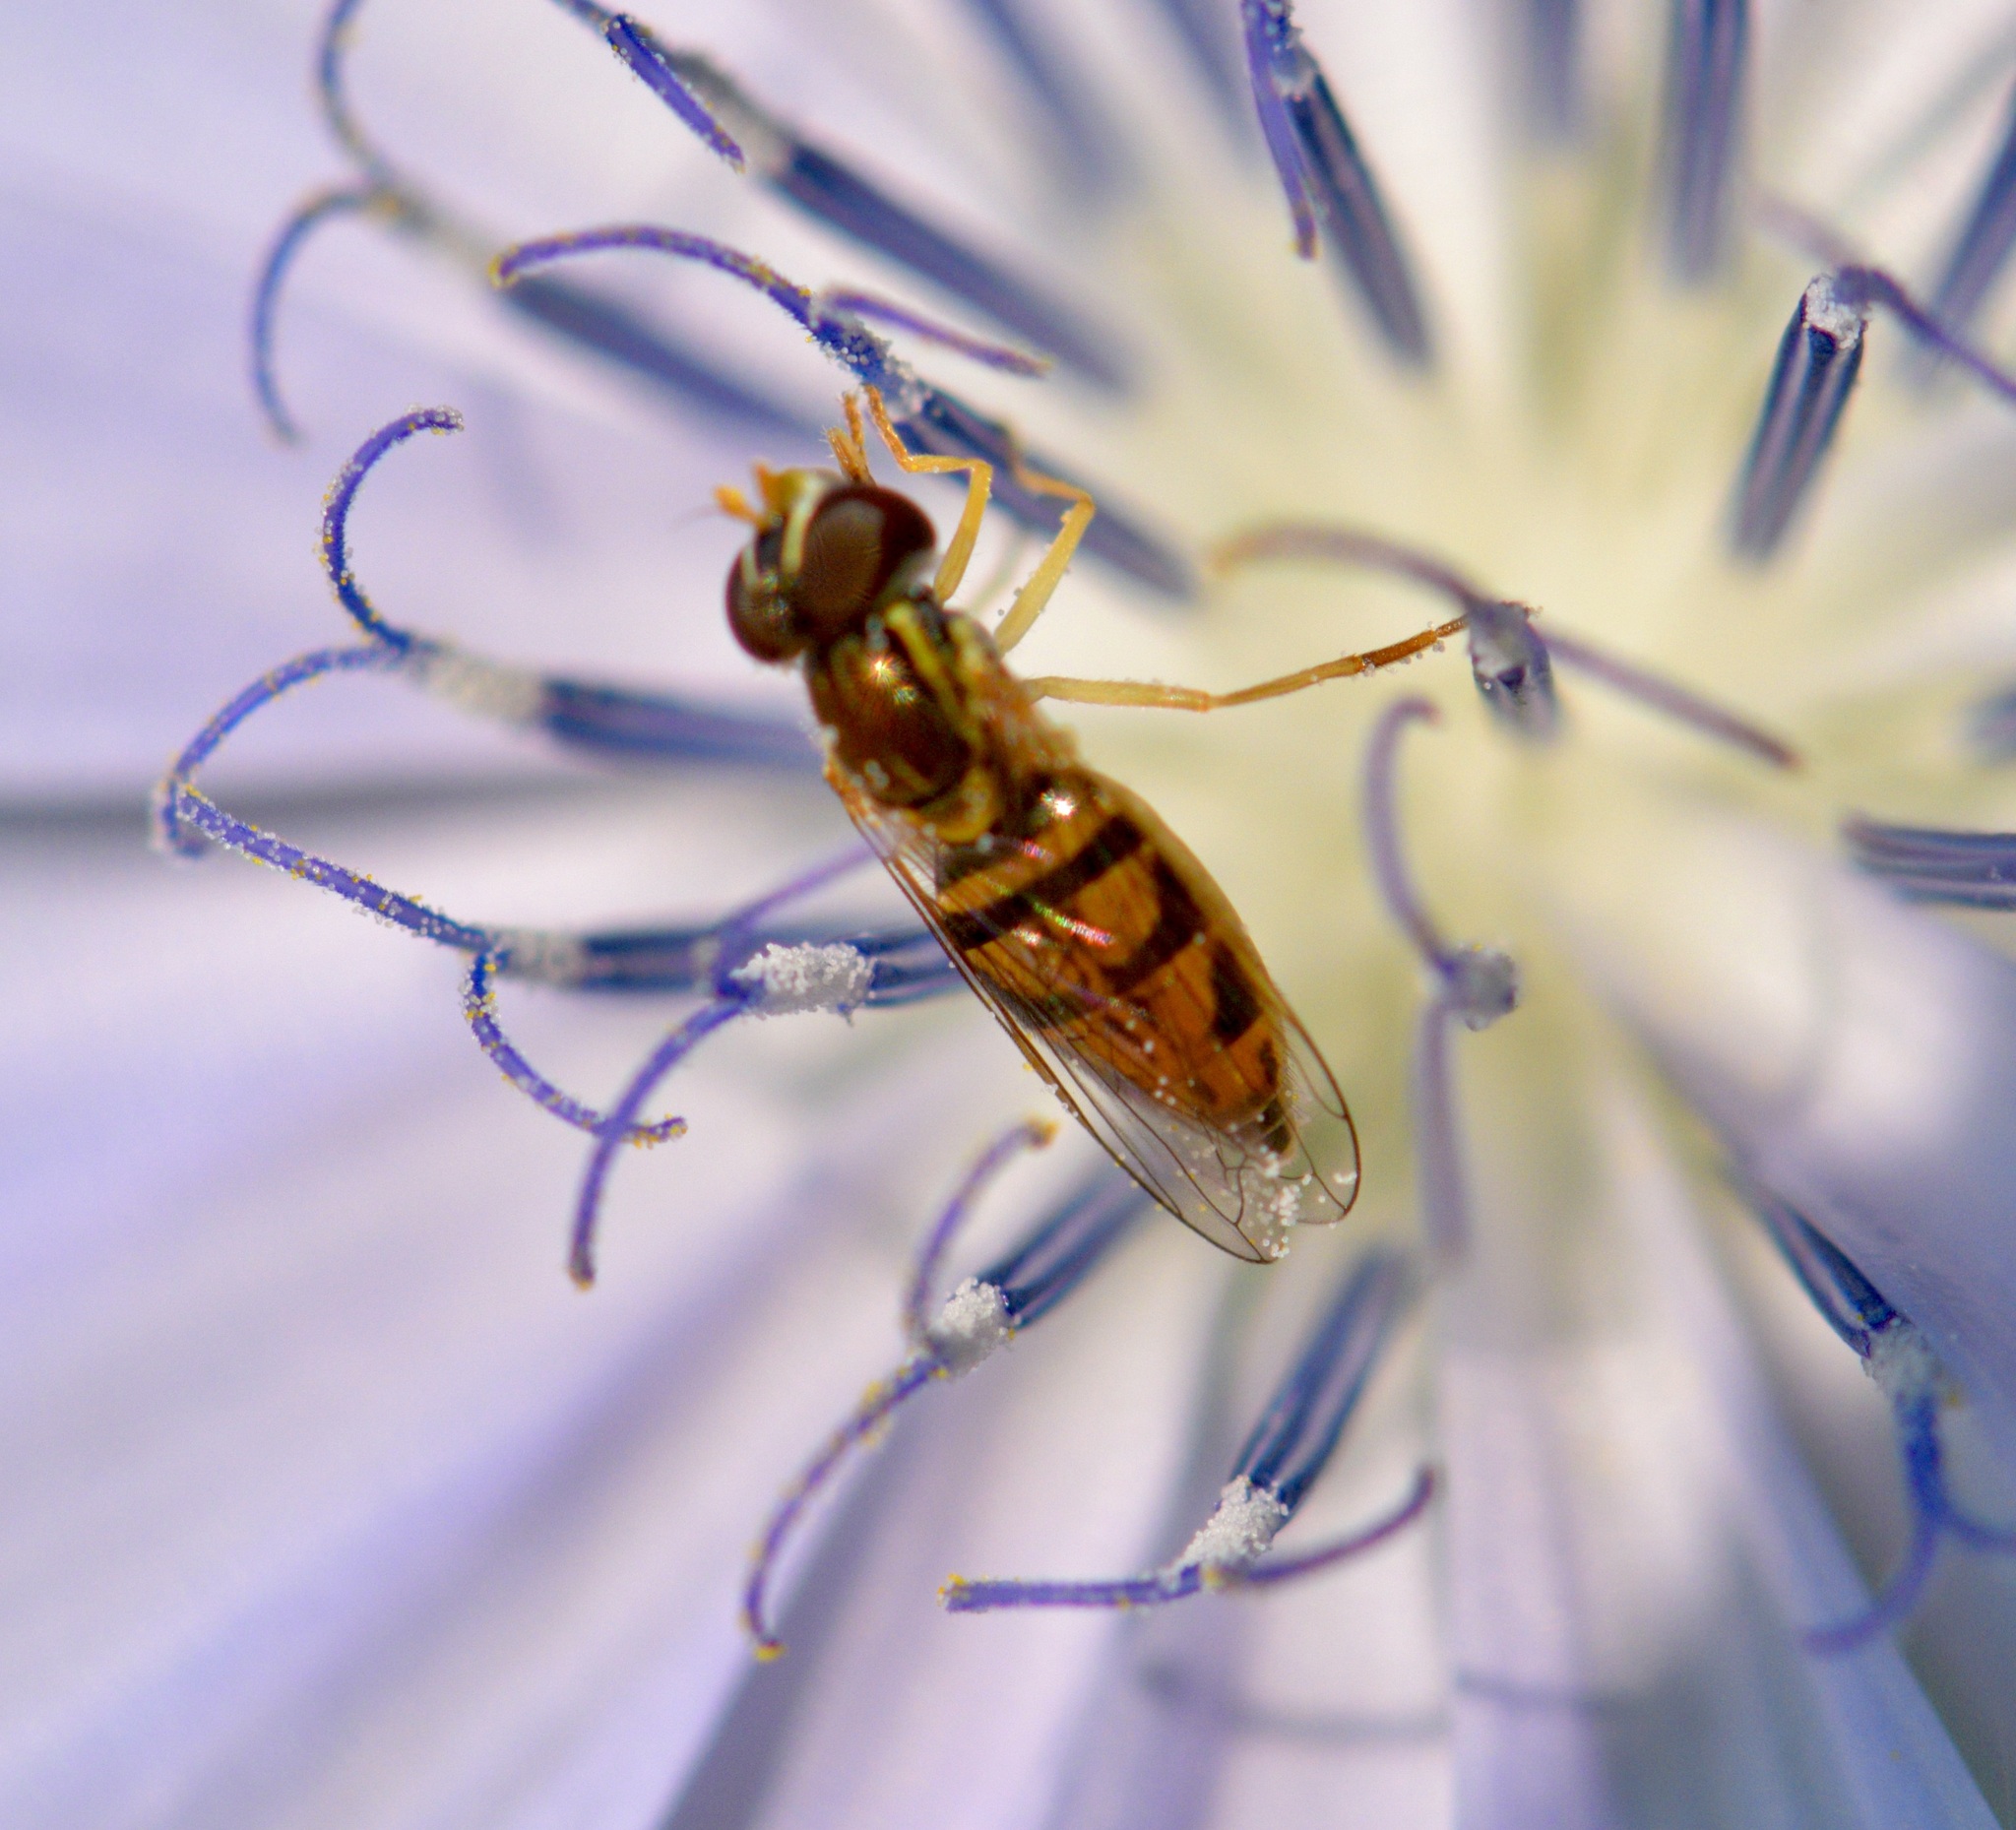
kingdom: Animalia
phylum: Arthropoda
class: Insecta
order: Diptera
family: Syrphidae
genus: Toxomerus
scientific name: Toxomerus marginatus
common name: Syrphid fly
